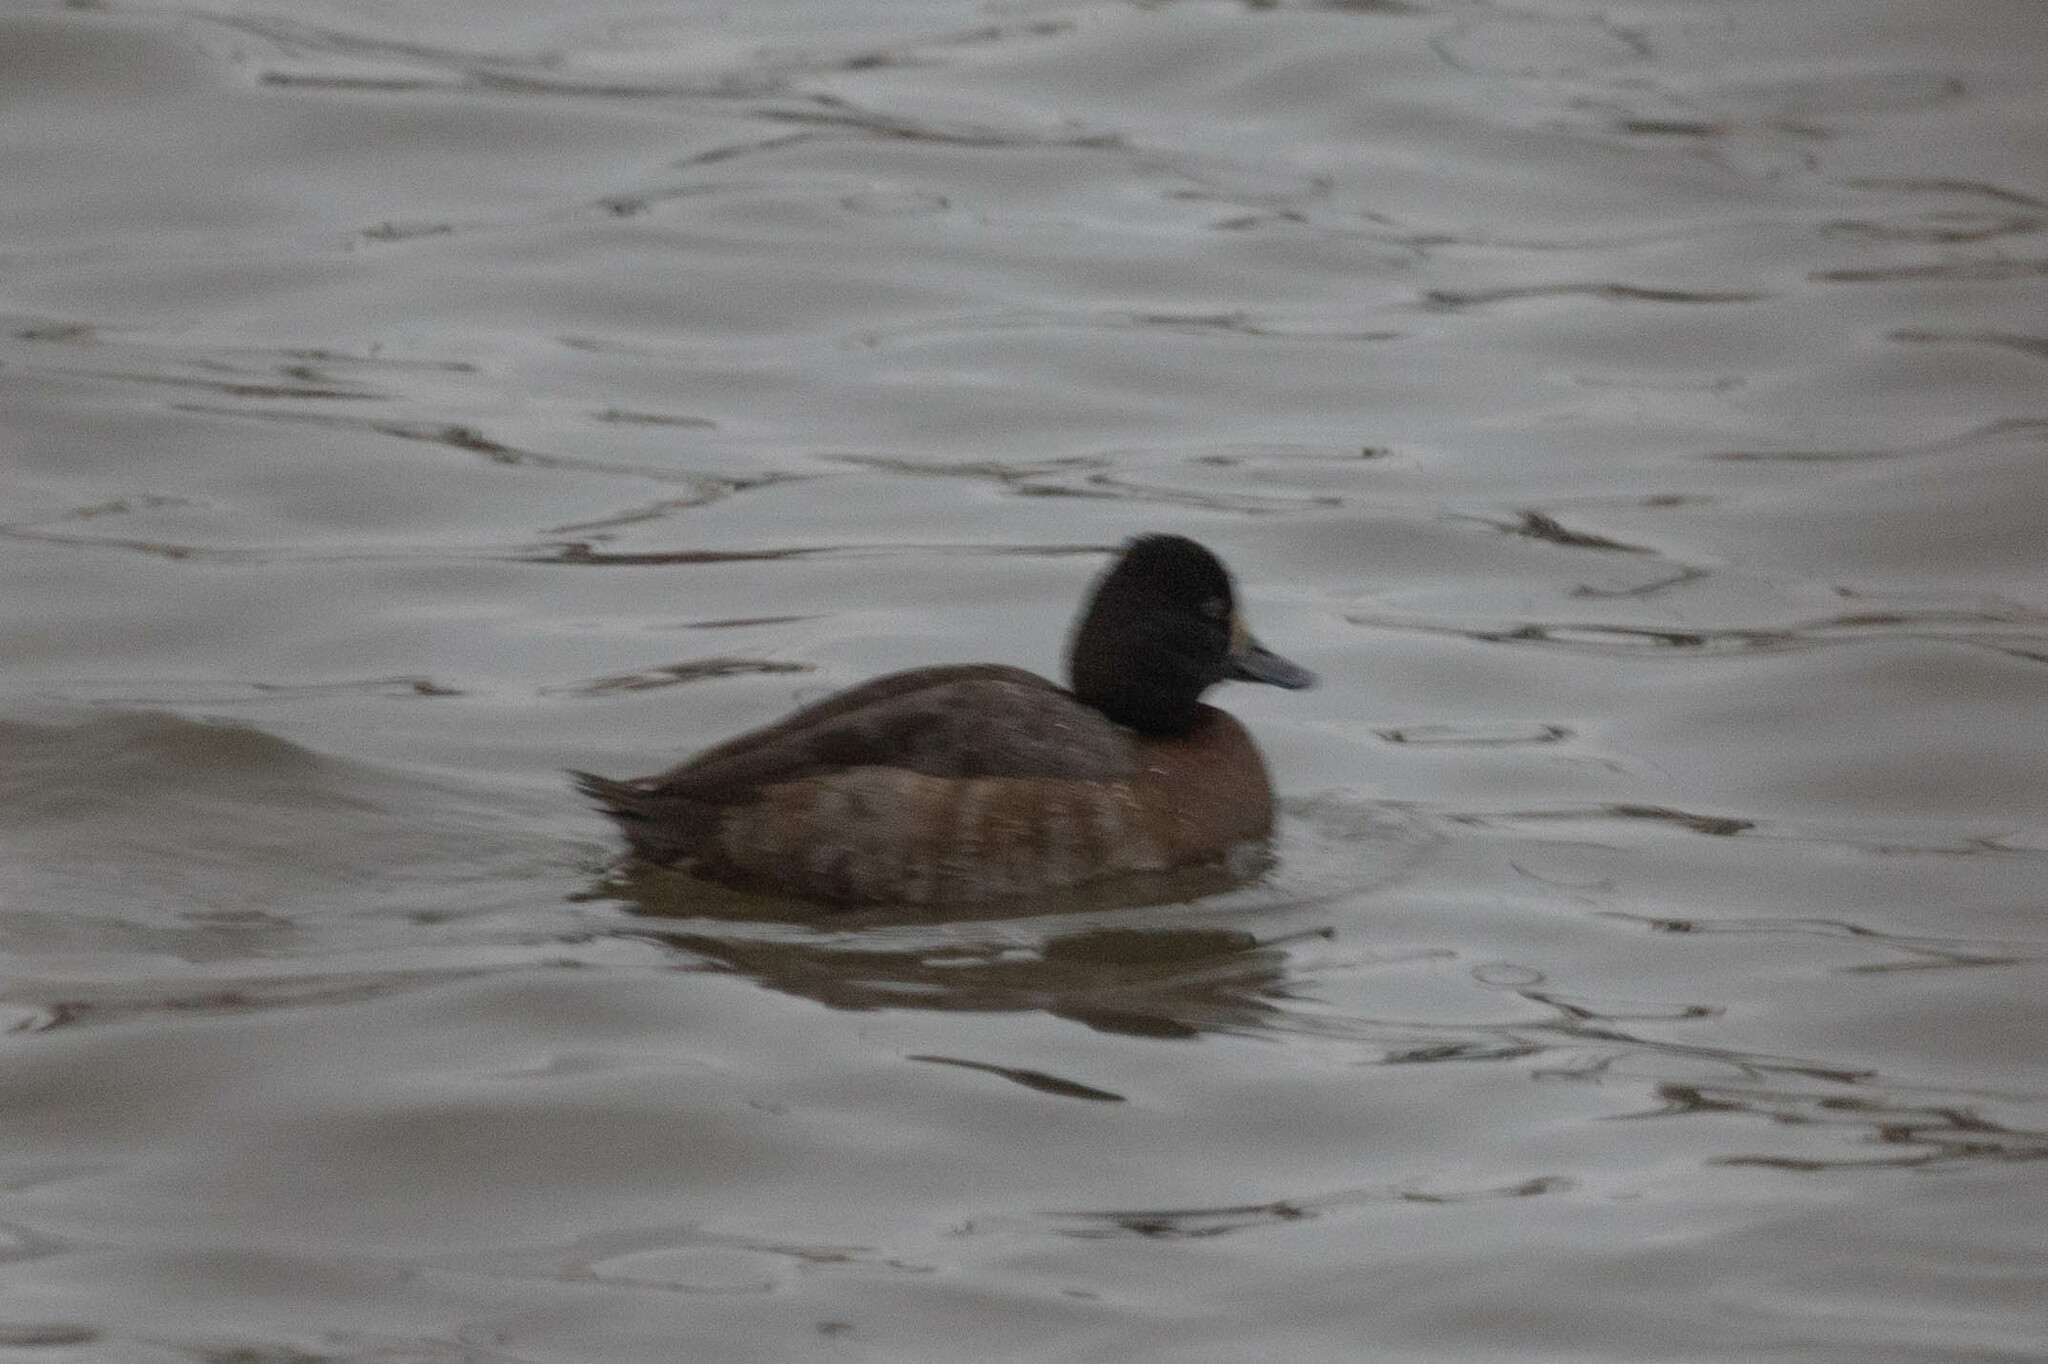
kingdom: Animalia
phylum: Chordata
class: Aves
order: Anseriformes
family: Anatidae
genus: Aythya
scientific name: Aythya affinis
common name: Lesser scaup
